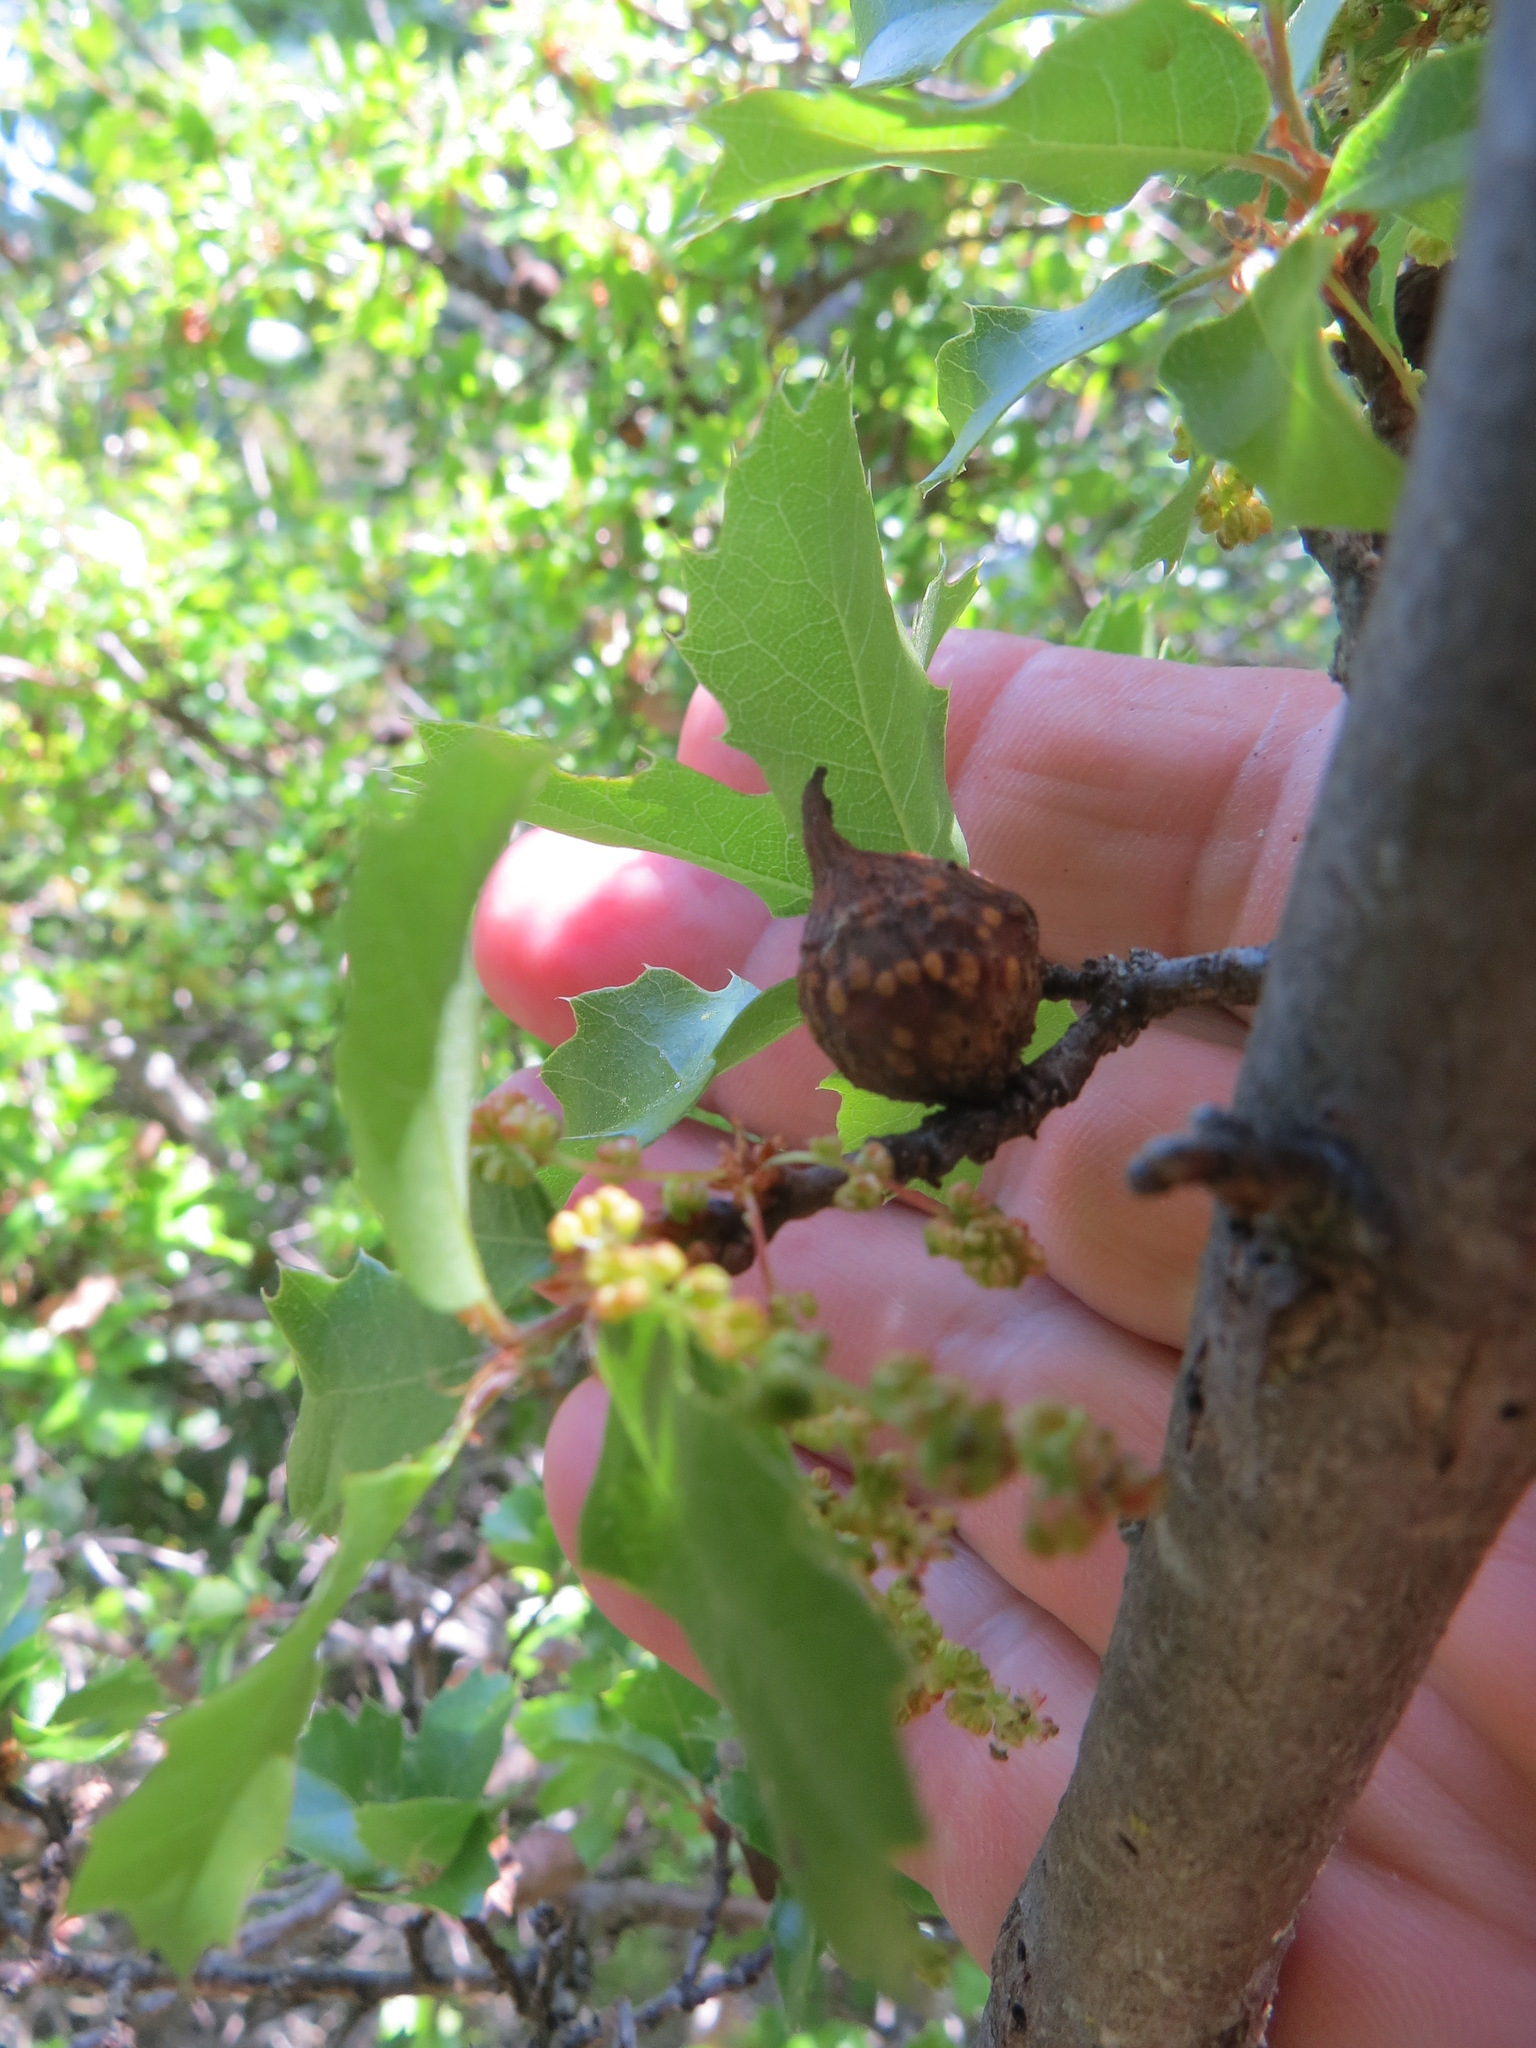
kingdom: Animalia
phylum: Arthropoda
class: Insecta
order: Hymenoptera
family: Cynipidae
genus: Burnettweldia
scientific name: Burnettweldia
